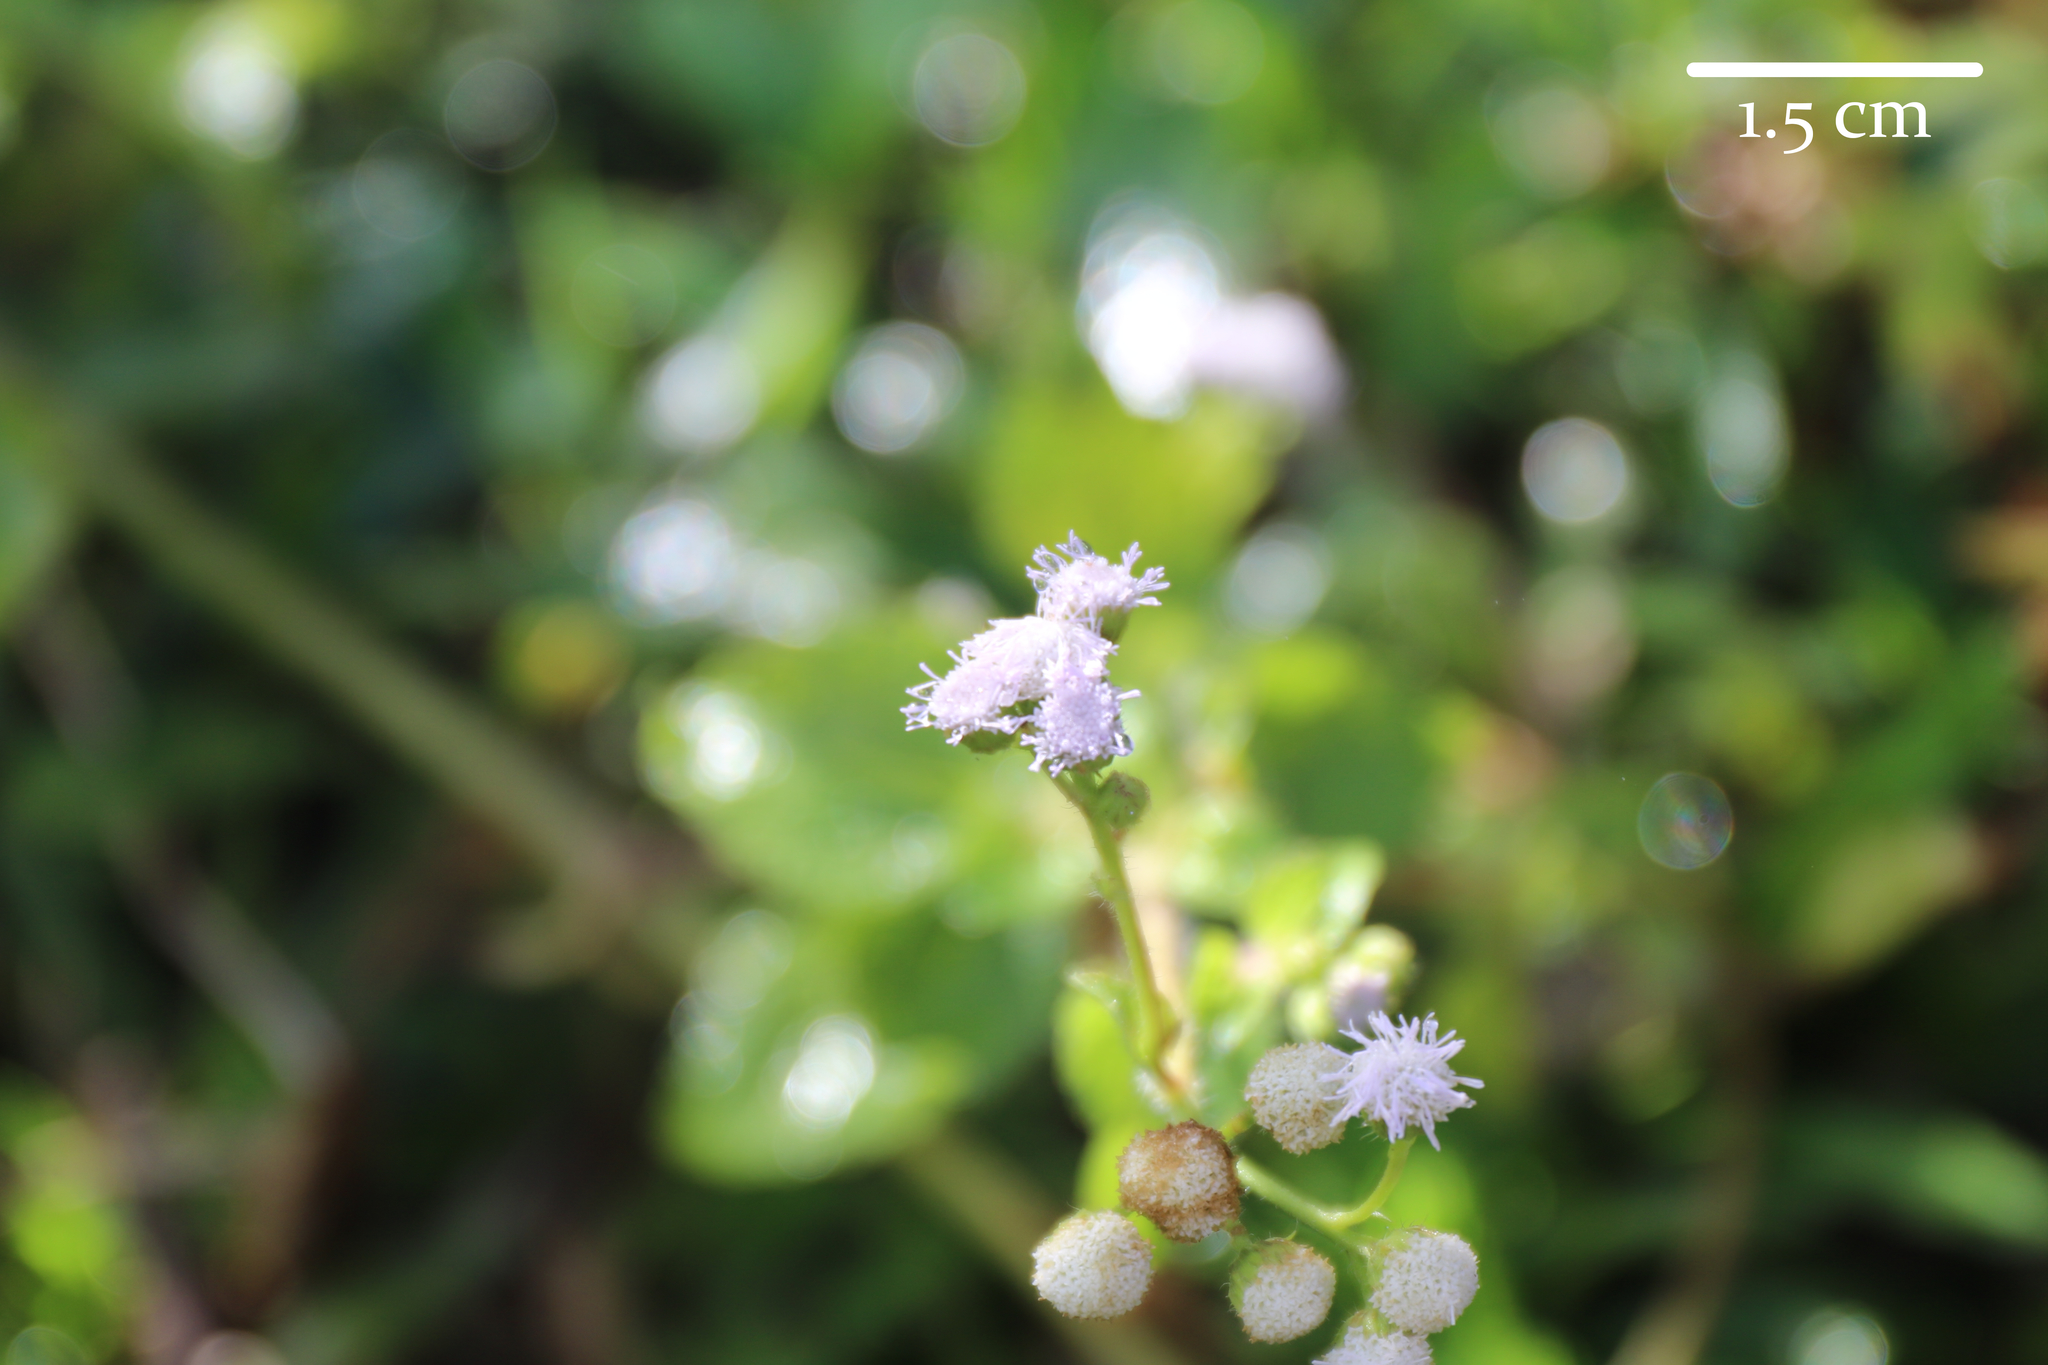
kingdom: Plantae
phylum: Tracheophyta
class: Magnoliopsida
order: Asterales
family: Asteraceae
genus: Chromolaena
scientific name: Chromolaena odorata
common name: Siamweed
